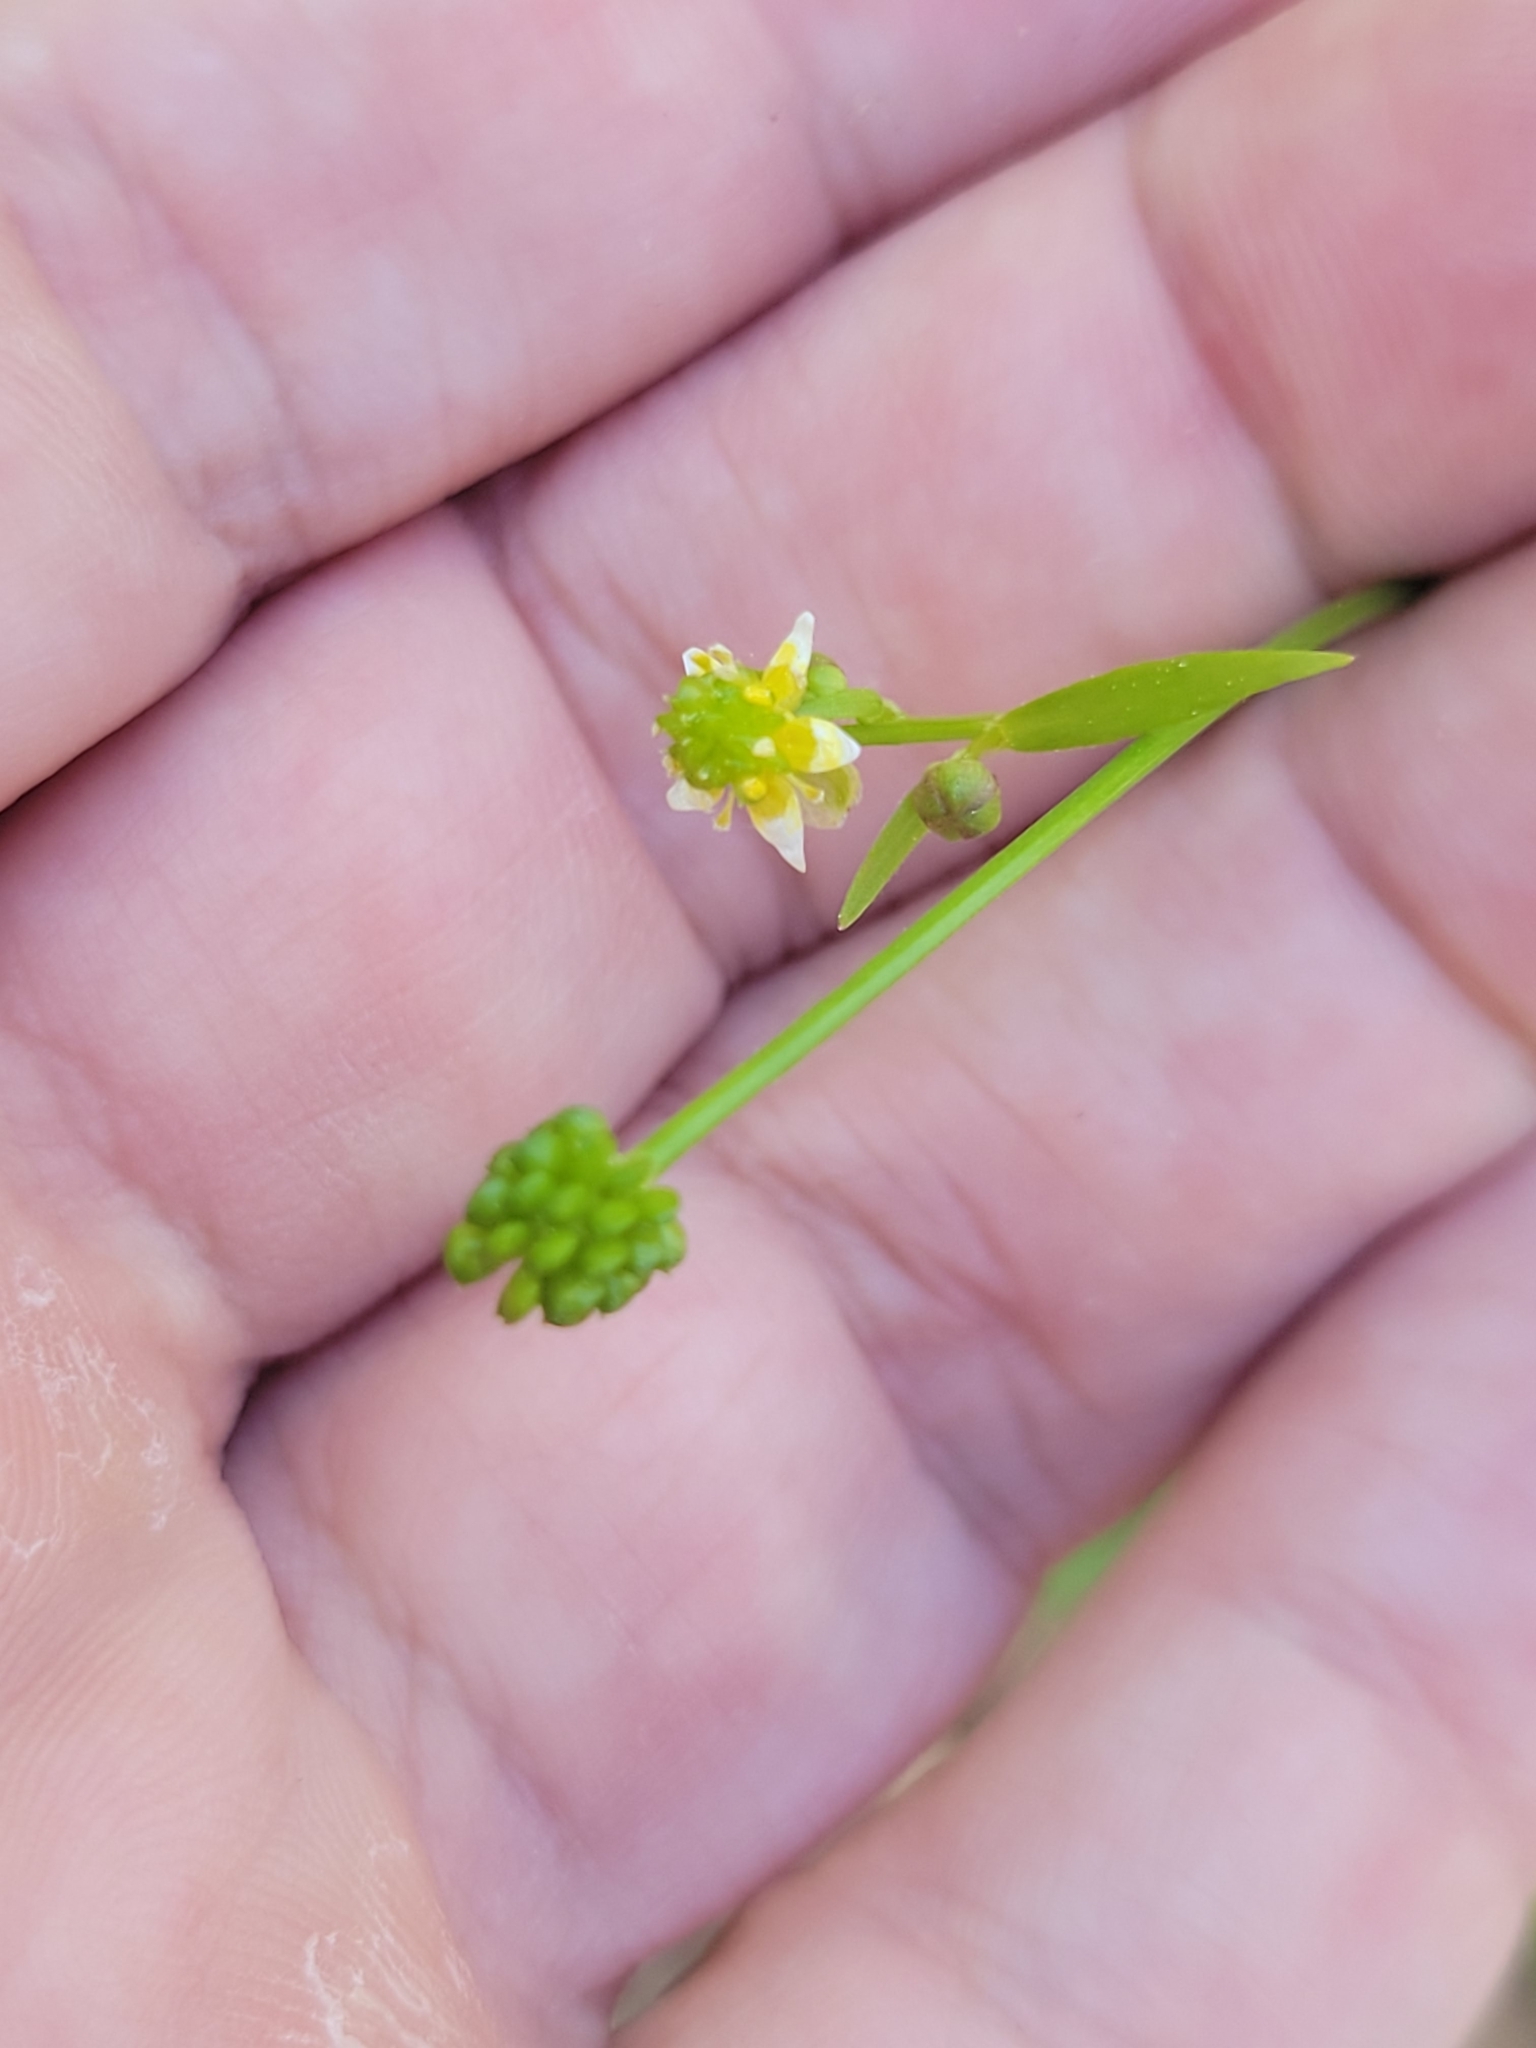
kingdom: Plantae
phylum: Tracheophyta
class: Magnoliopsida
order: Ranunculales
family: Ranunculaceae
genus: Ranunculus
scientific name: Ranunculus abortivus
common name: Early wood buttercup
